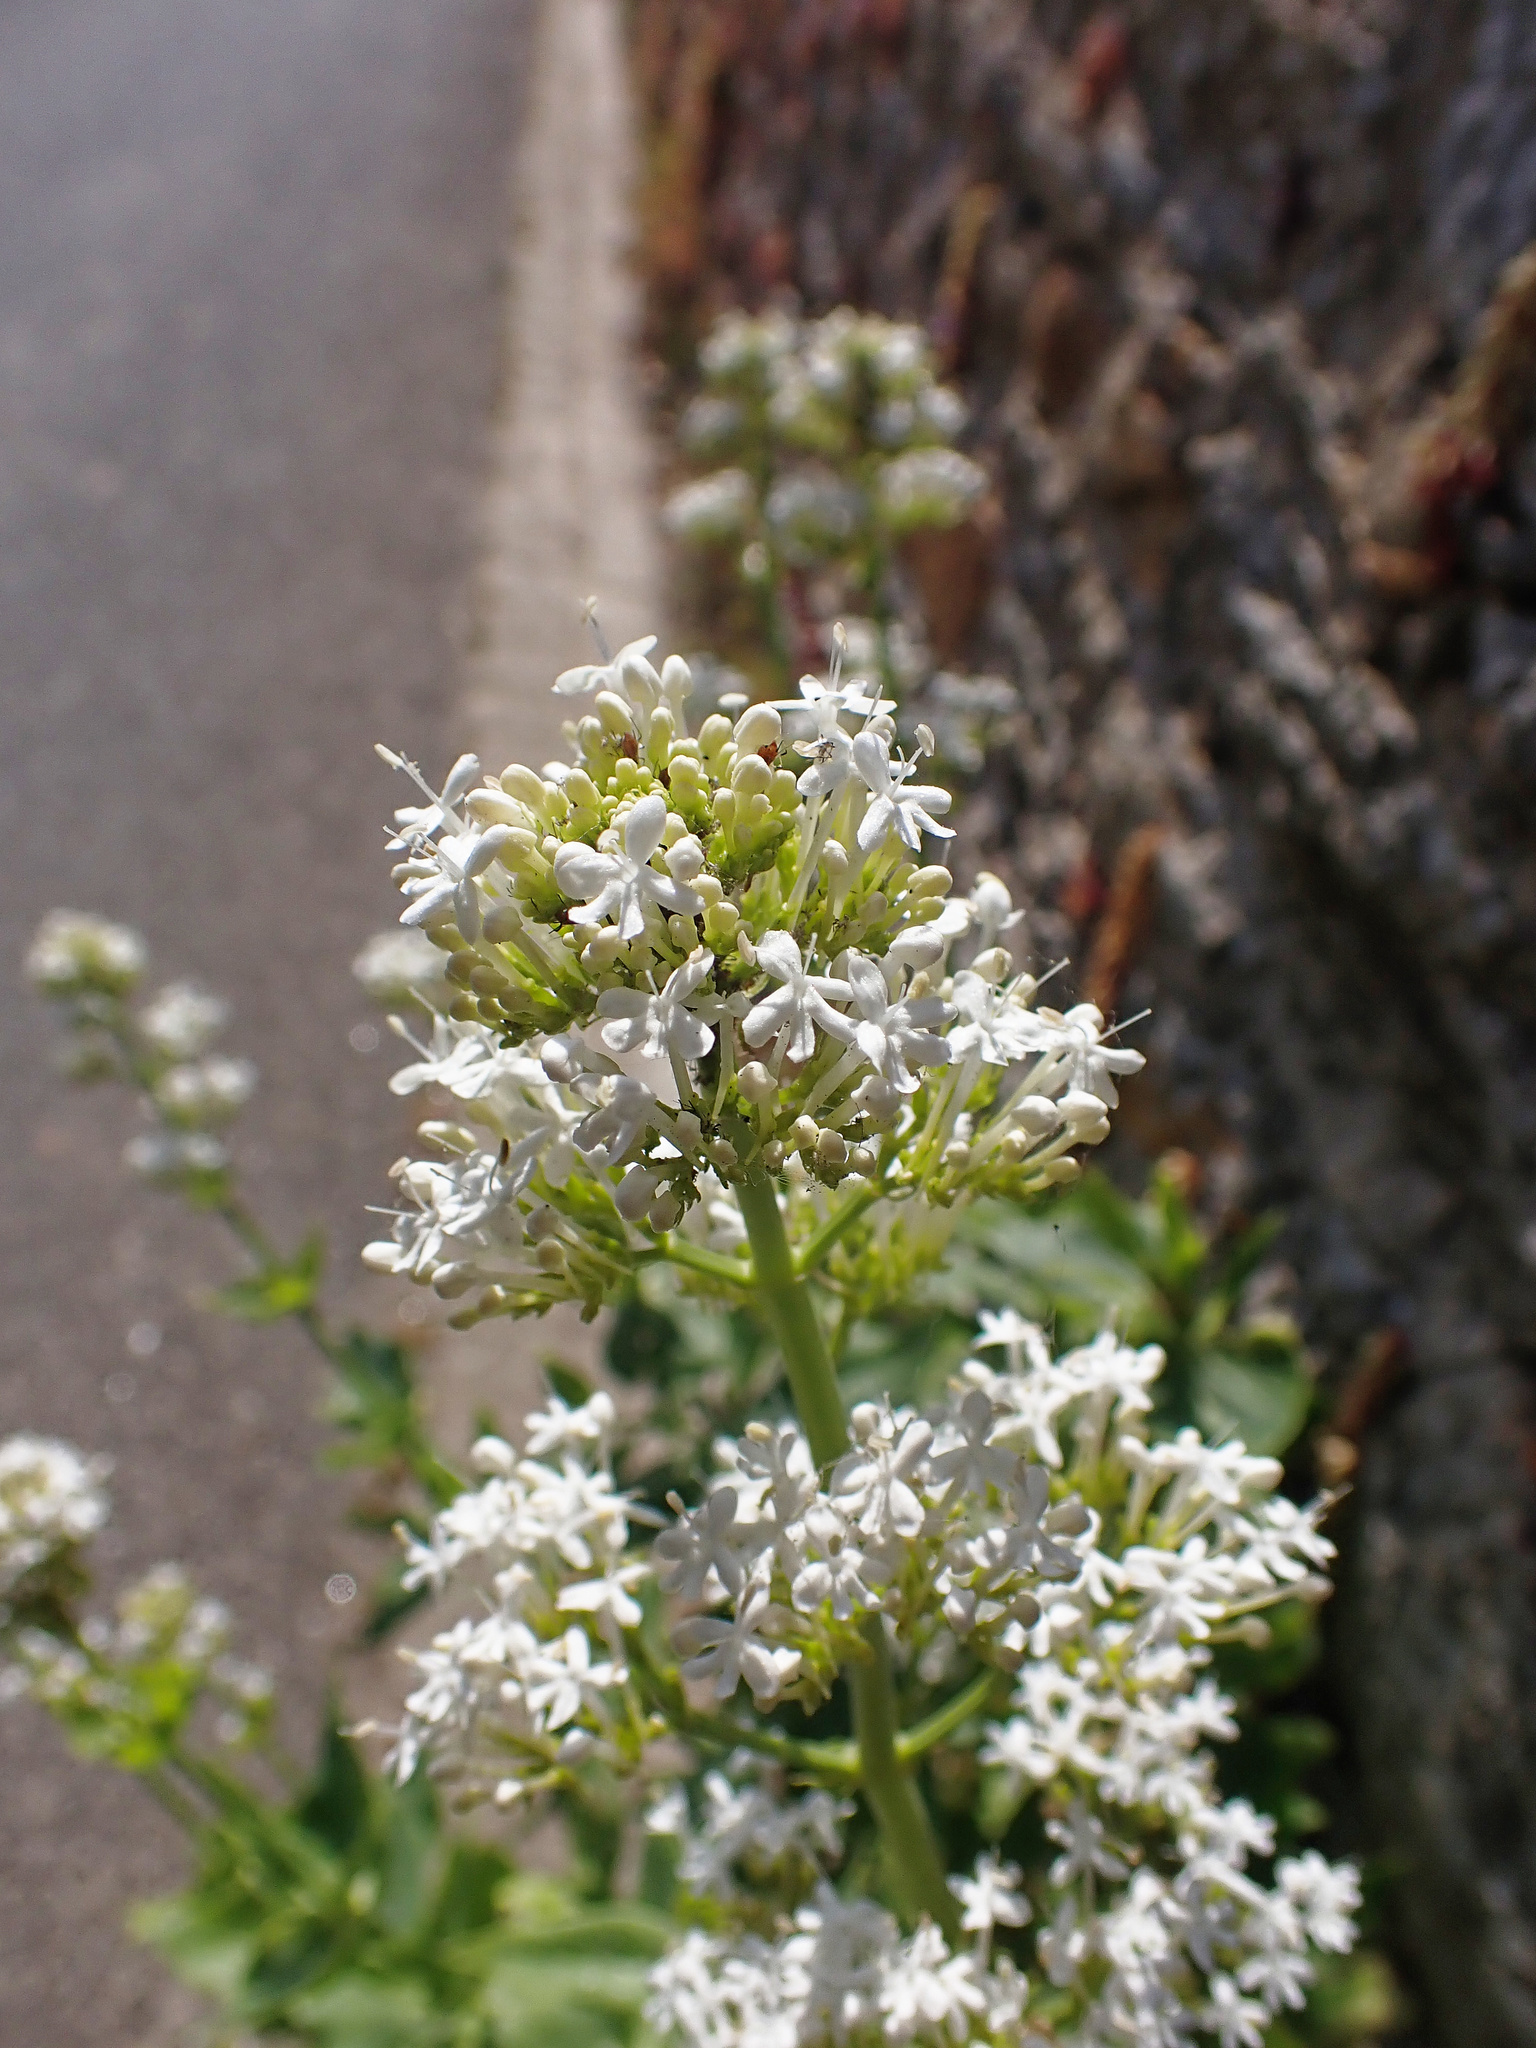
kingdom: Plantae
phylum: Tracheophyta
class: Magnoliopsida
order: Dipsacales
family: Caprifoliaceae
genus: Centranthus
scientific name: Centranthus ruber
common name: Red valerian
